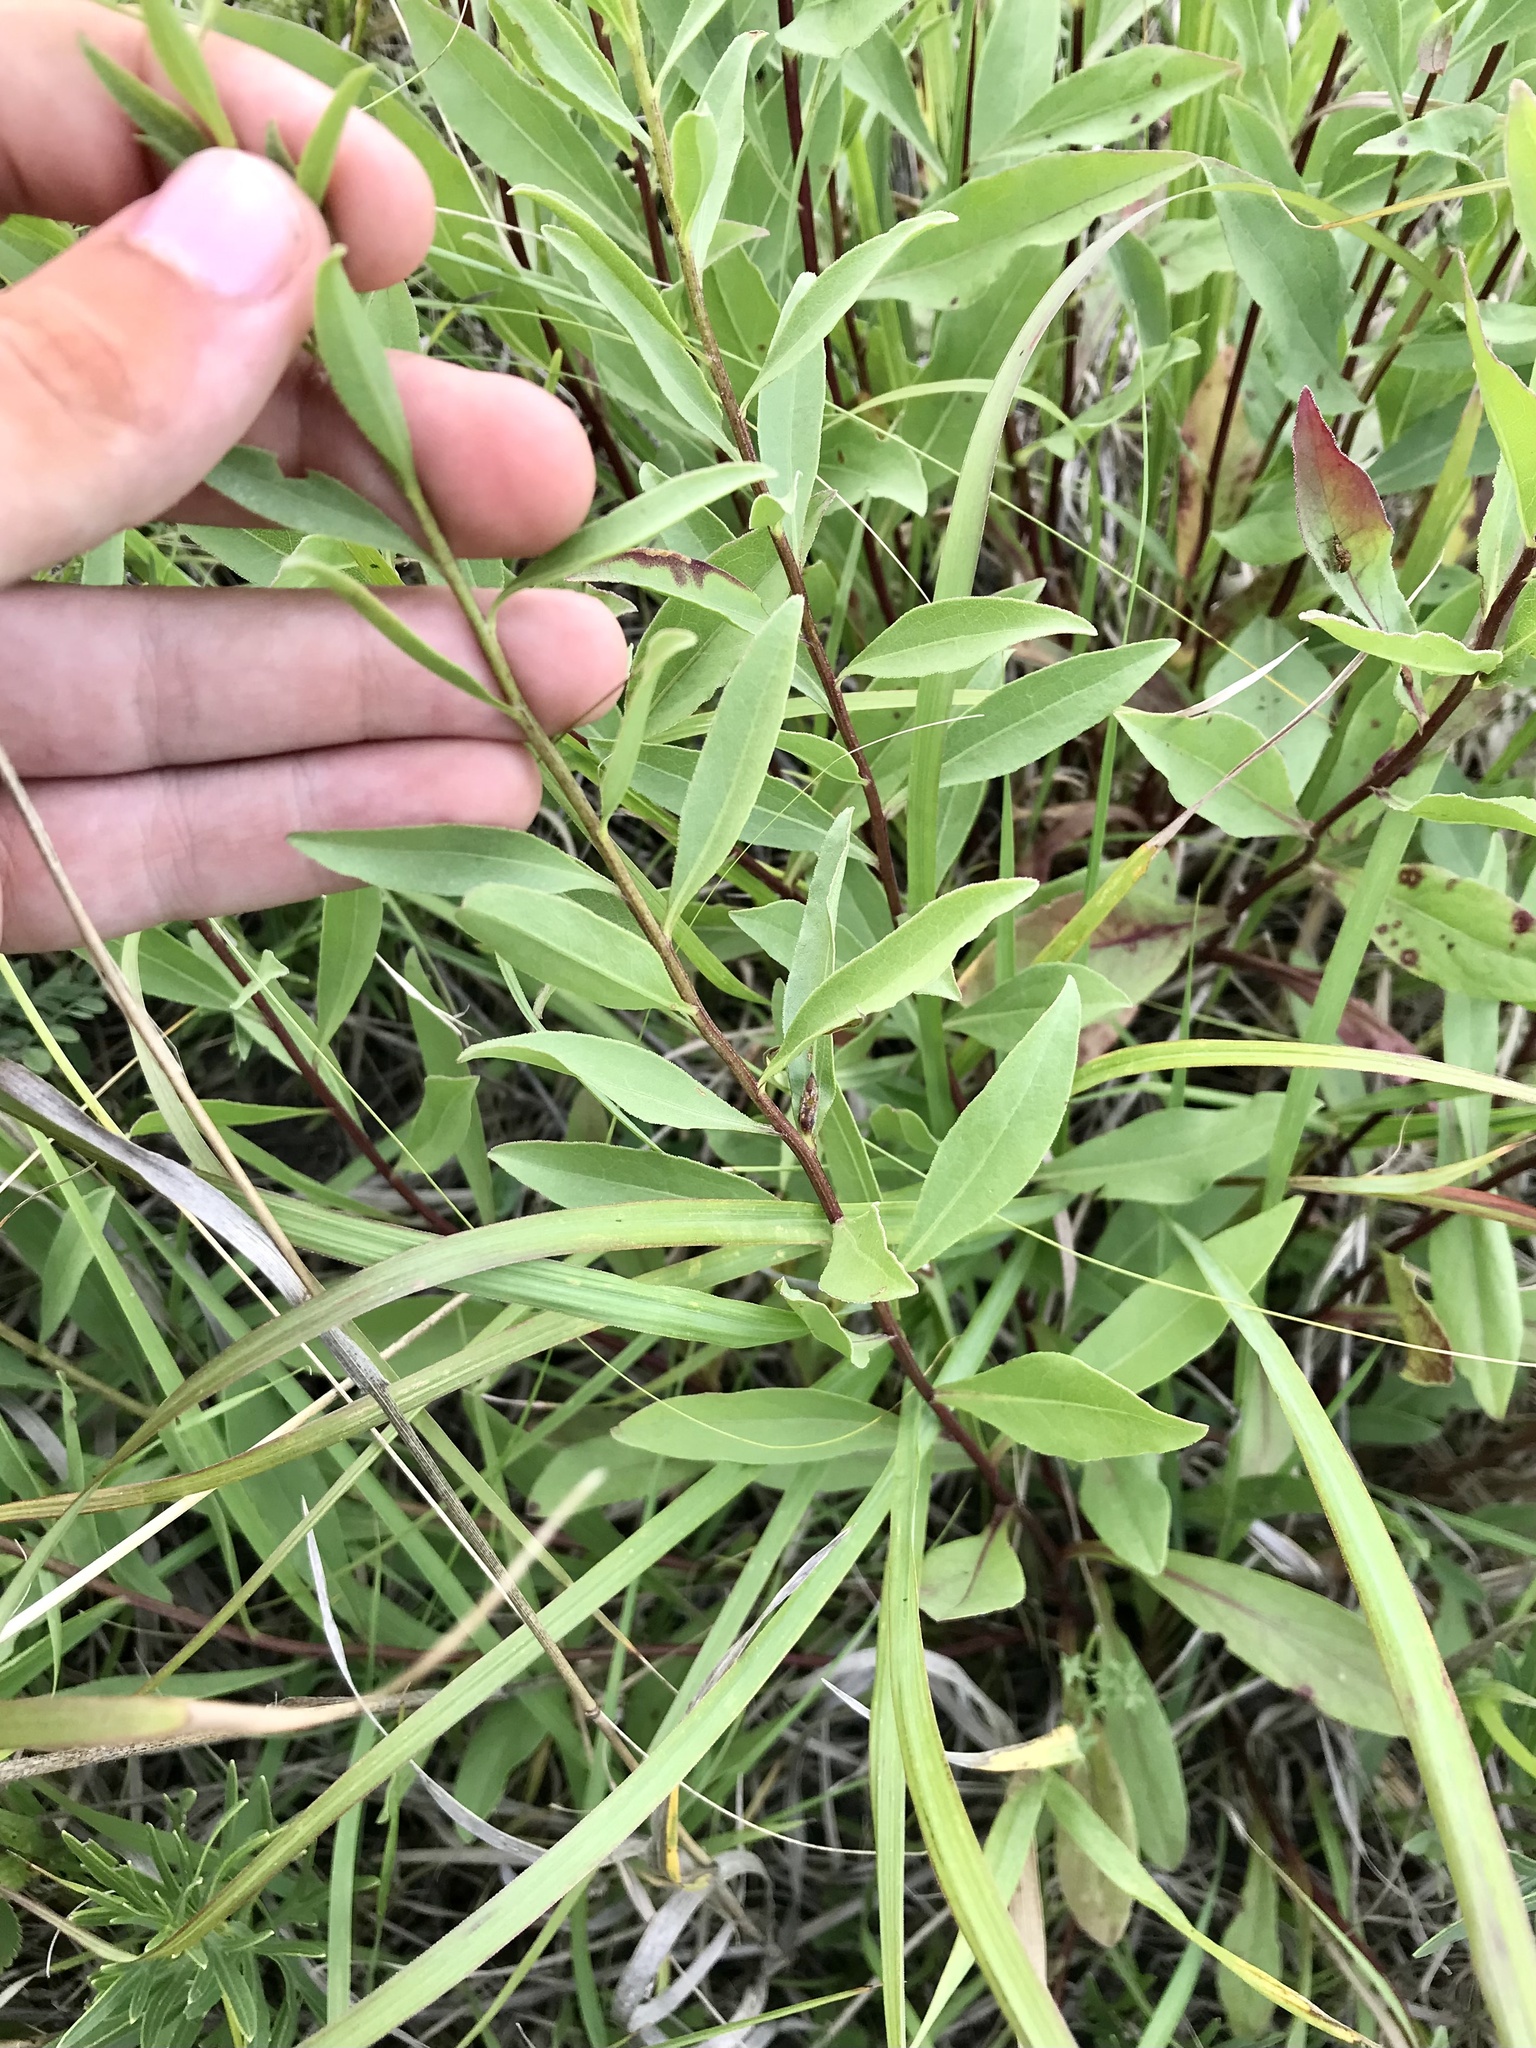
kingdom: Plantae
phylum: Tracheophyta
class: Magnoliopsida
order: Asterales
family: Asteraceae
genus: Solidago
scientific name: Solidago rigidiuscula
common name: Stiff-leaved showy goldenrod
